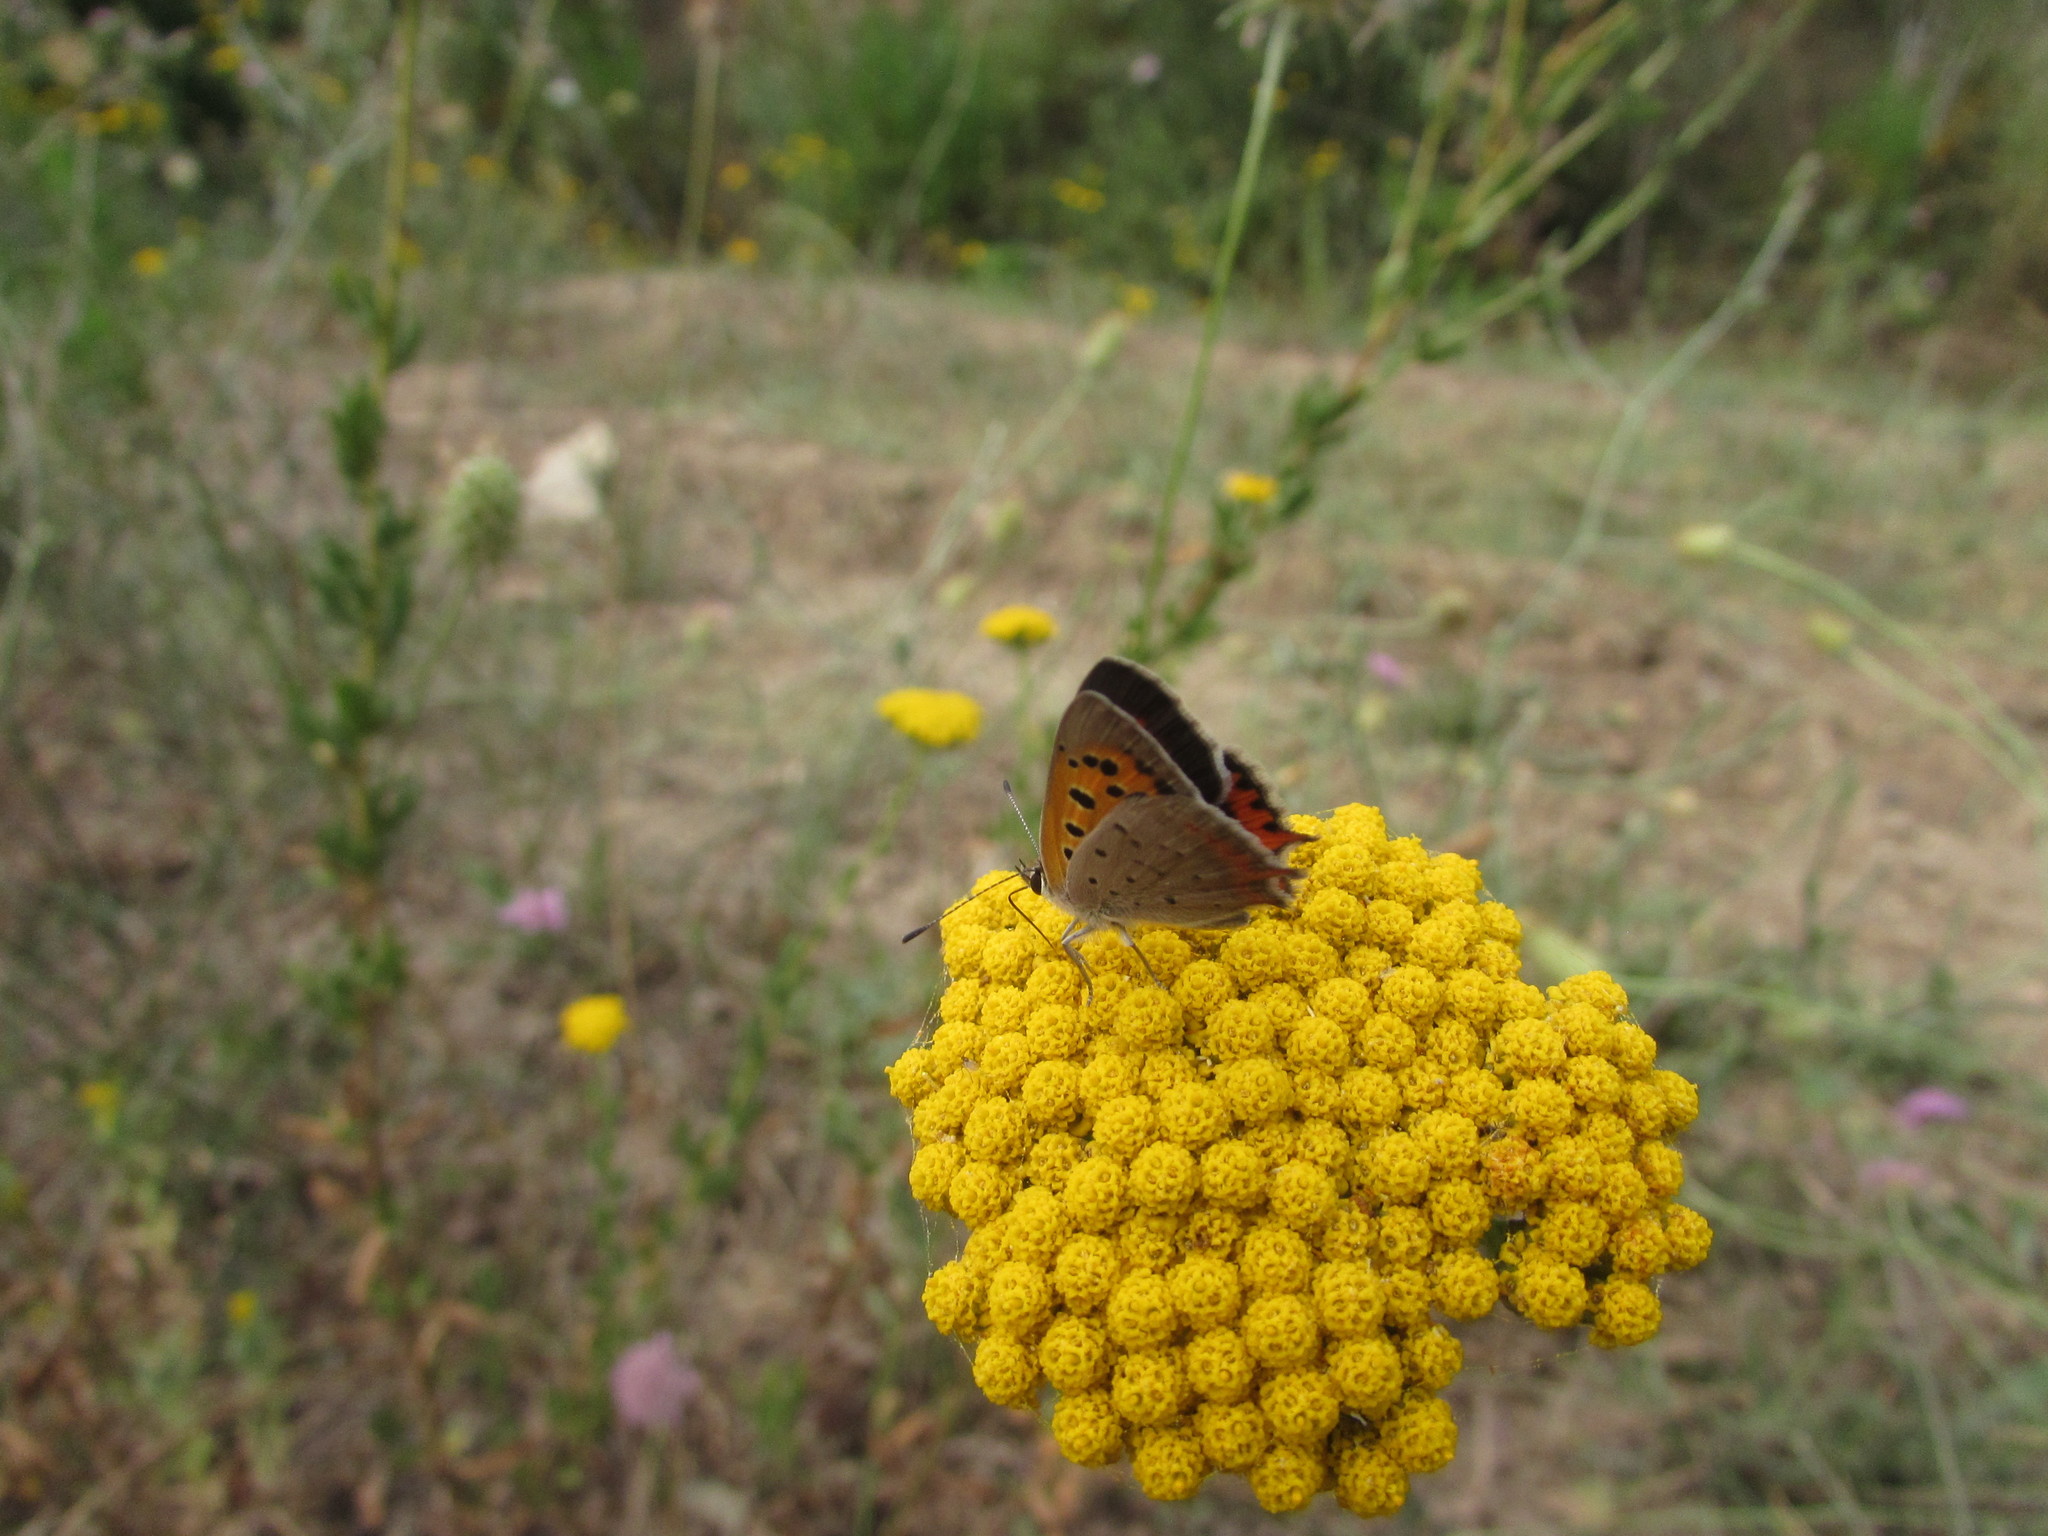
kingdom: Animalia
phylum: Arthropoda
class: Insecta
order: Lepidoptera
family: Lycaenidae
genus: Lycaena
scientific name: Lycaena phlaeas
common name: Small copper
